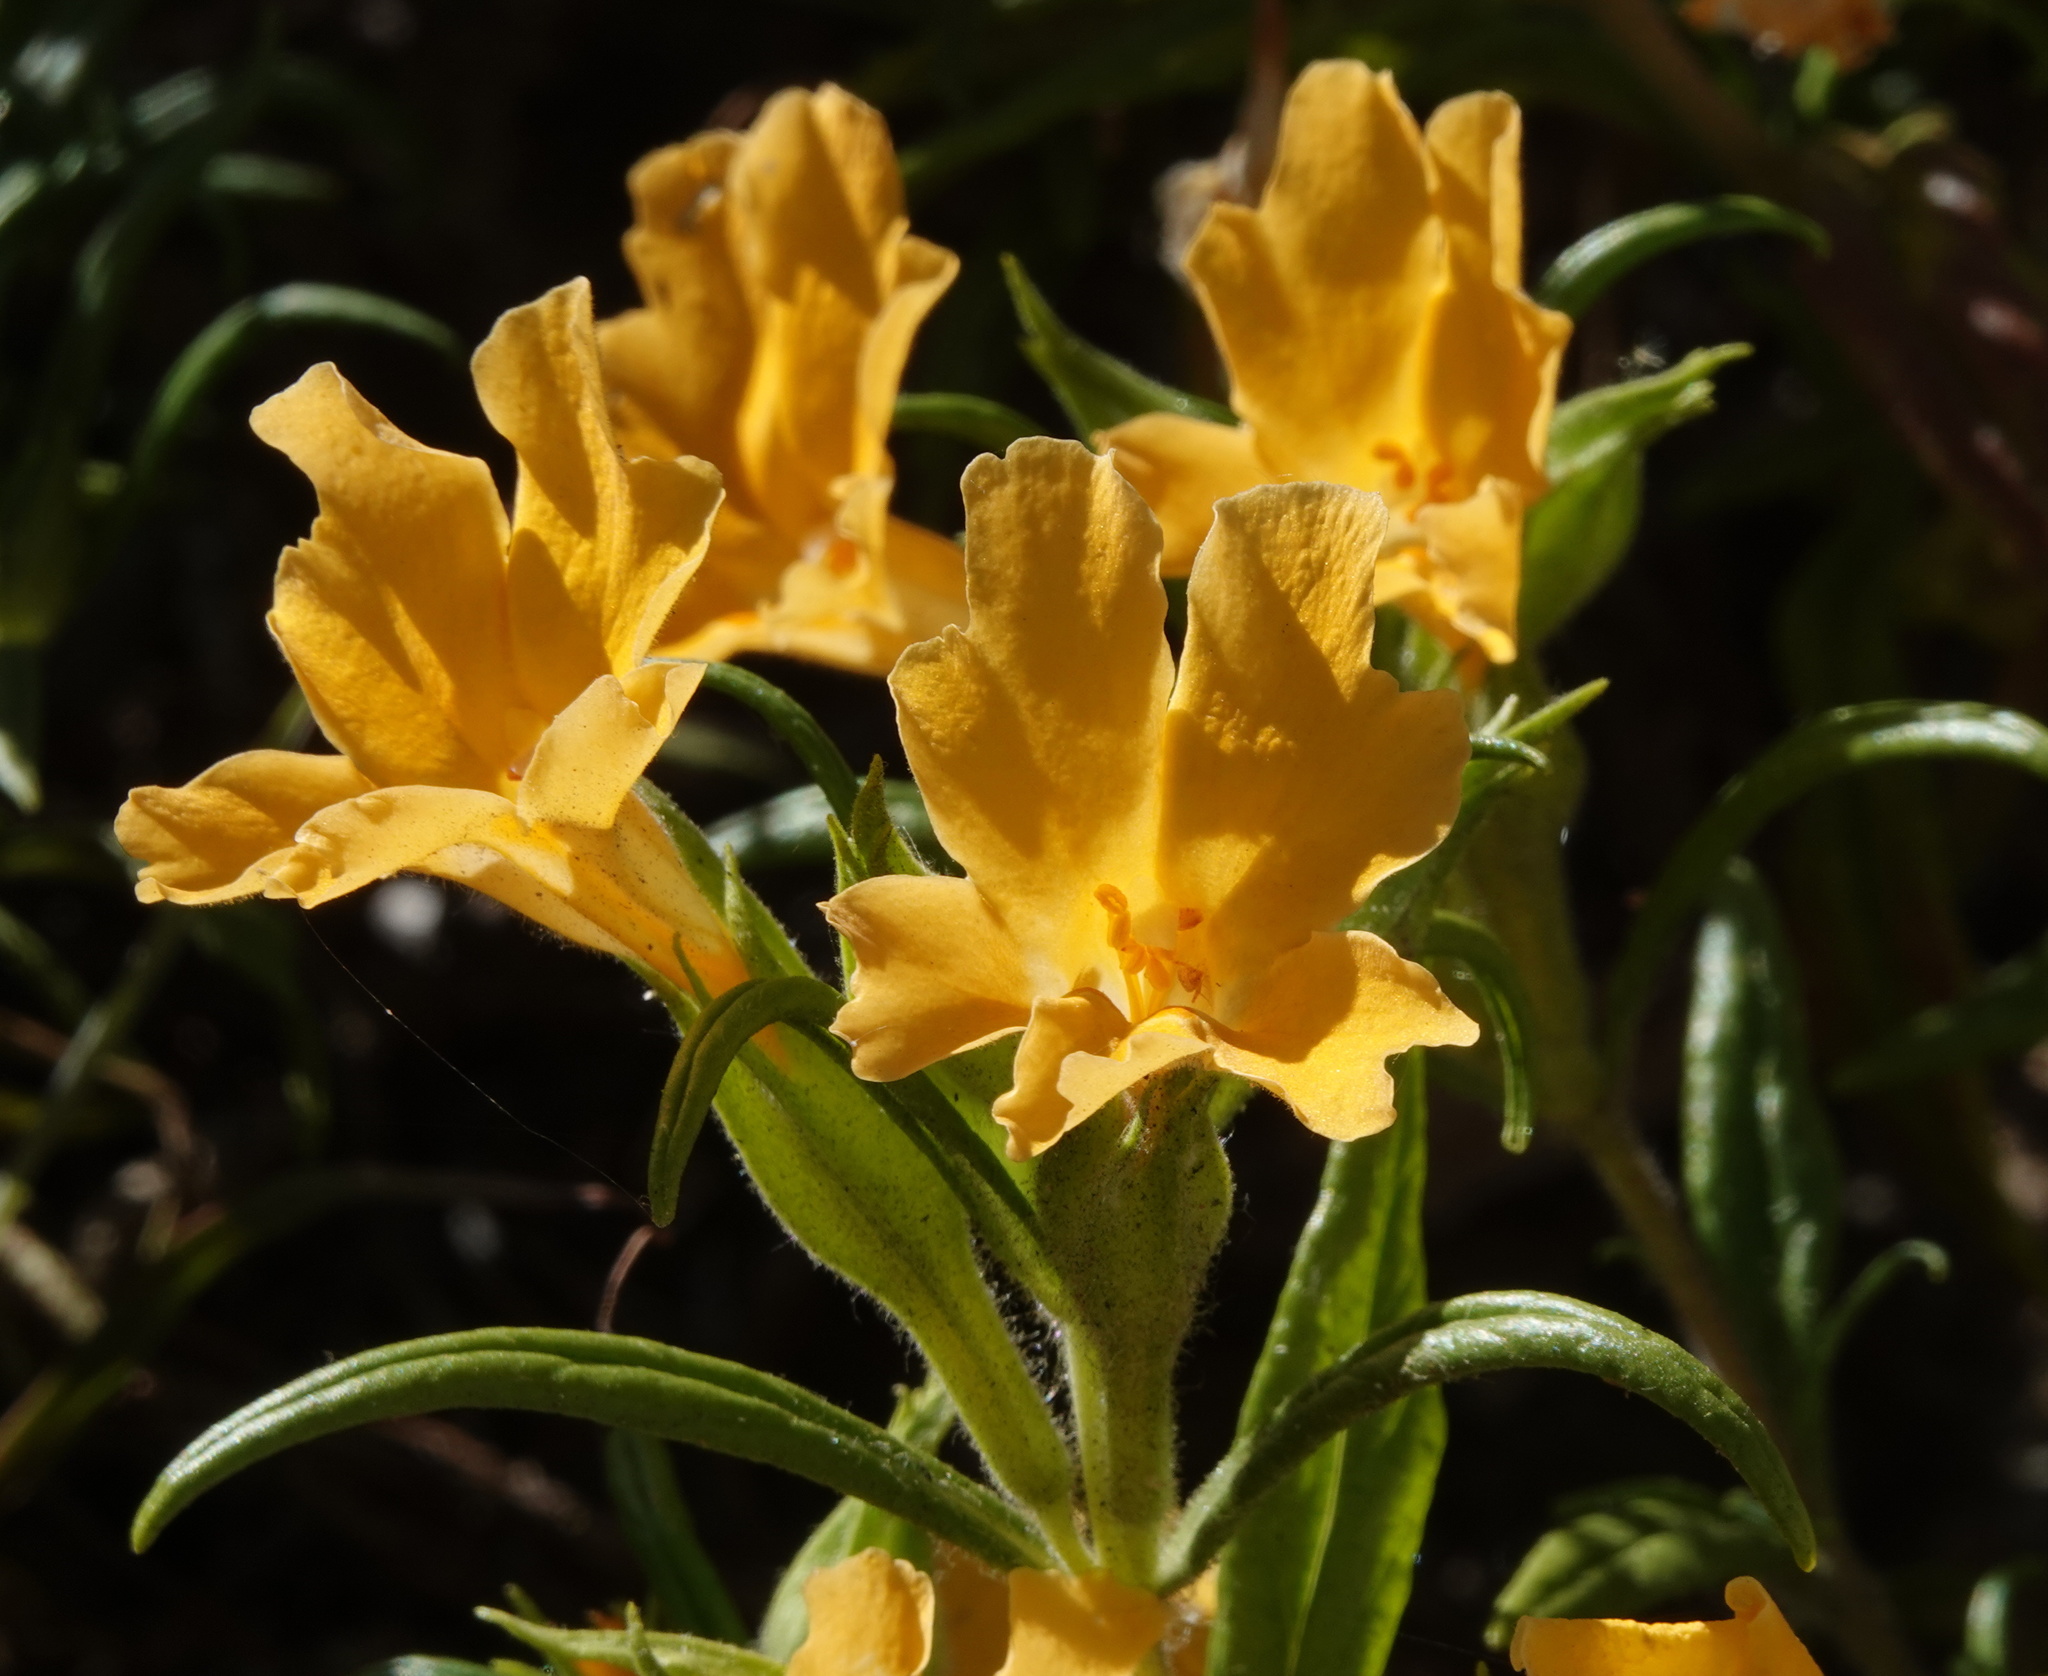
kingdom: Plantae
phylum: Tracheophyta
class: Magnoliopsida
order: Lamiales
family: Phrymaceae
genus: Diplacus
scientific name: Diplacus longiflorus
